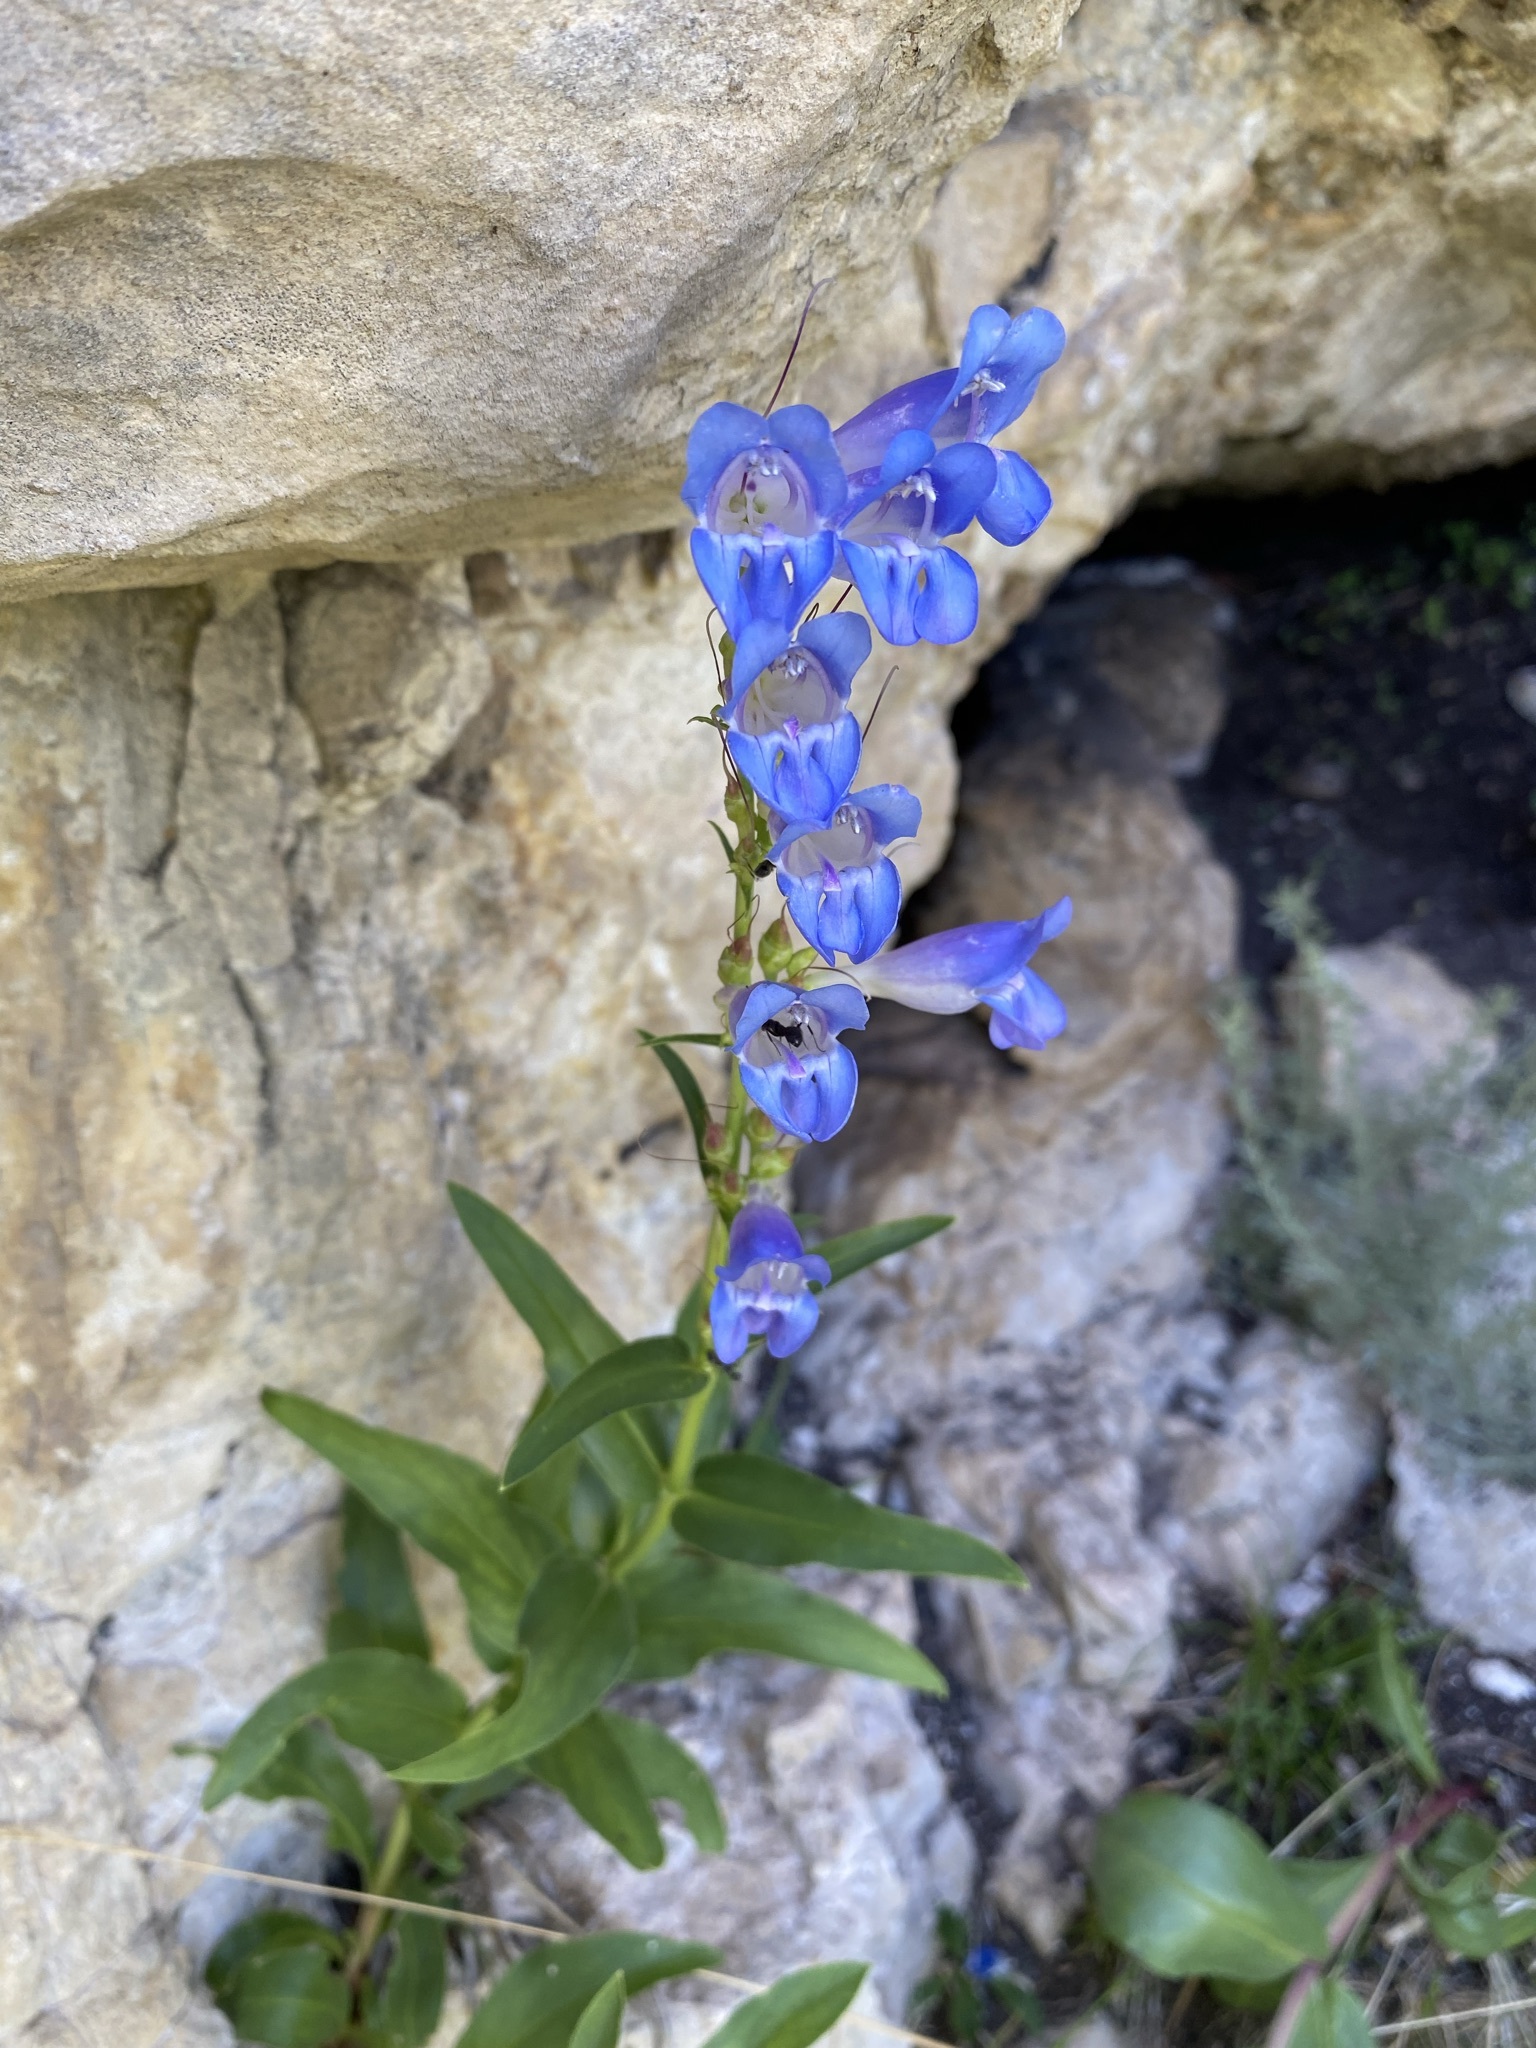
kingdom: Plantae
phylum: Tracheophyta
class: Magnoliopsida
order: Lamiales
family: Plantaginaceae
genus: Penstemon
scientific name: Penstemon glaber
